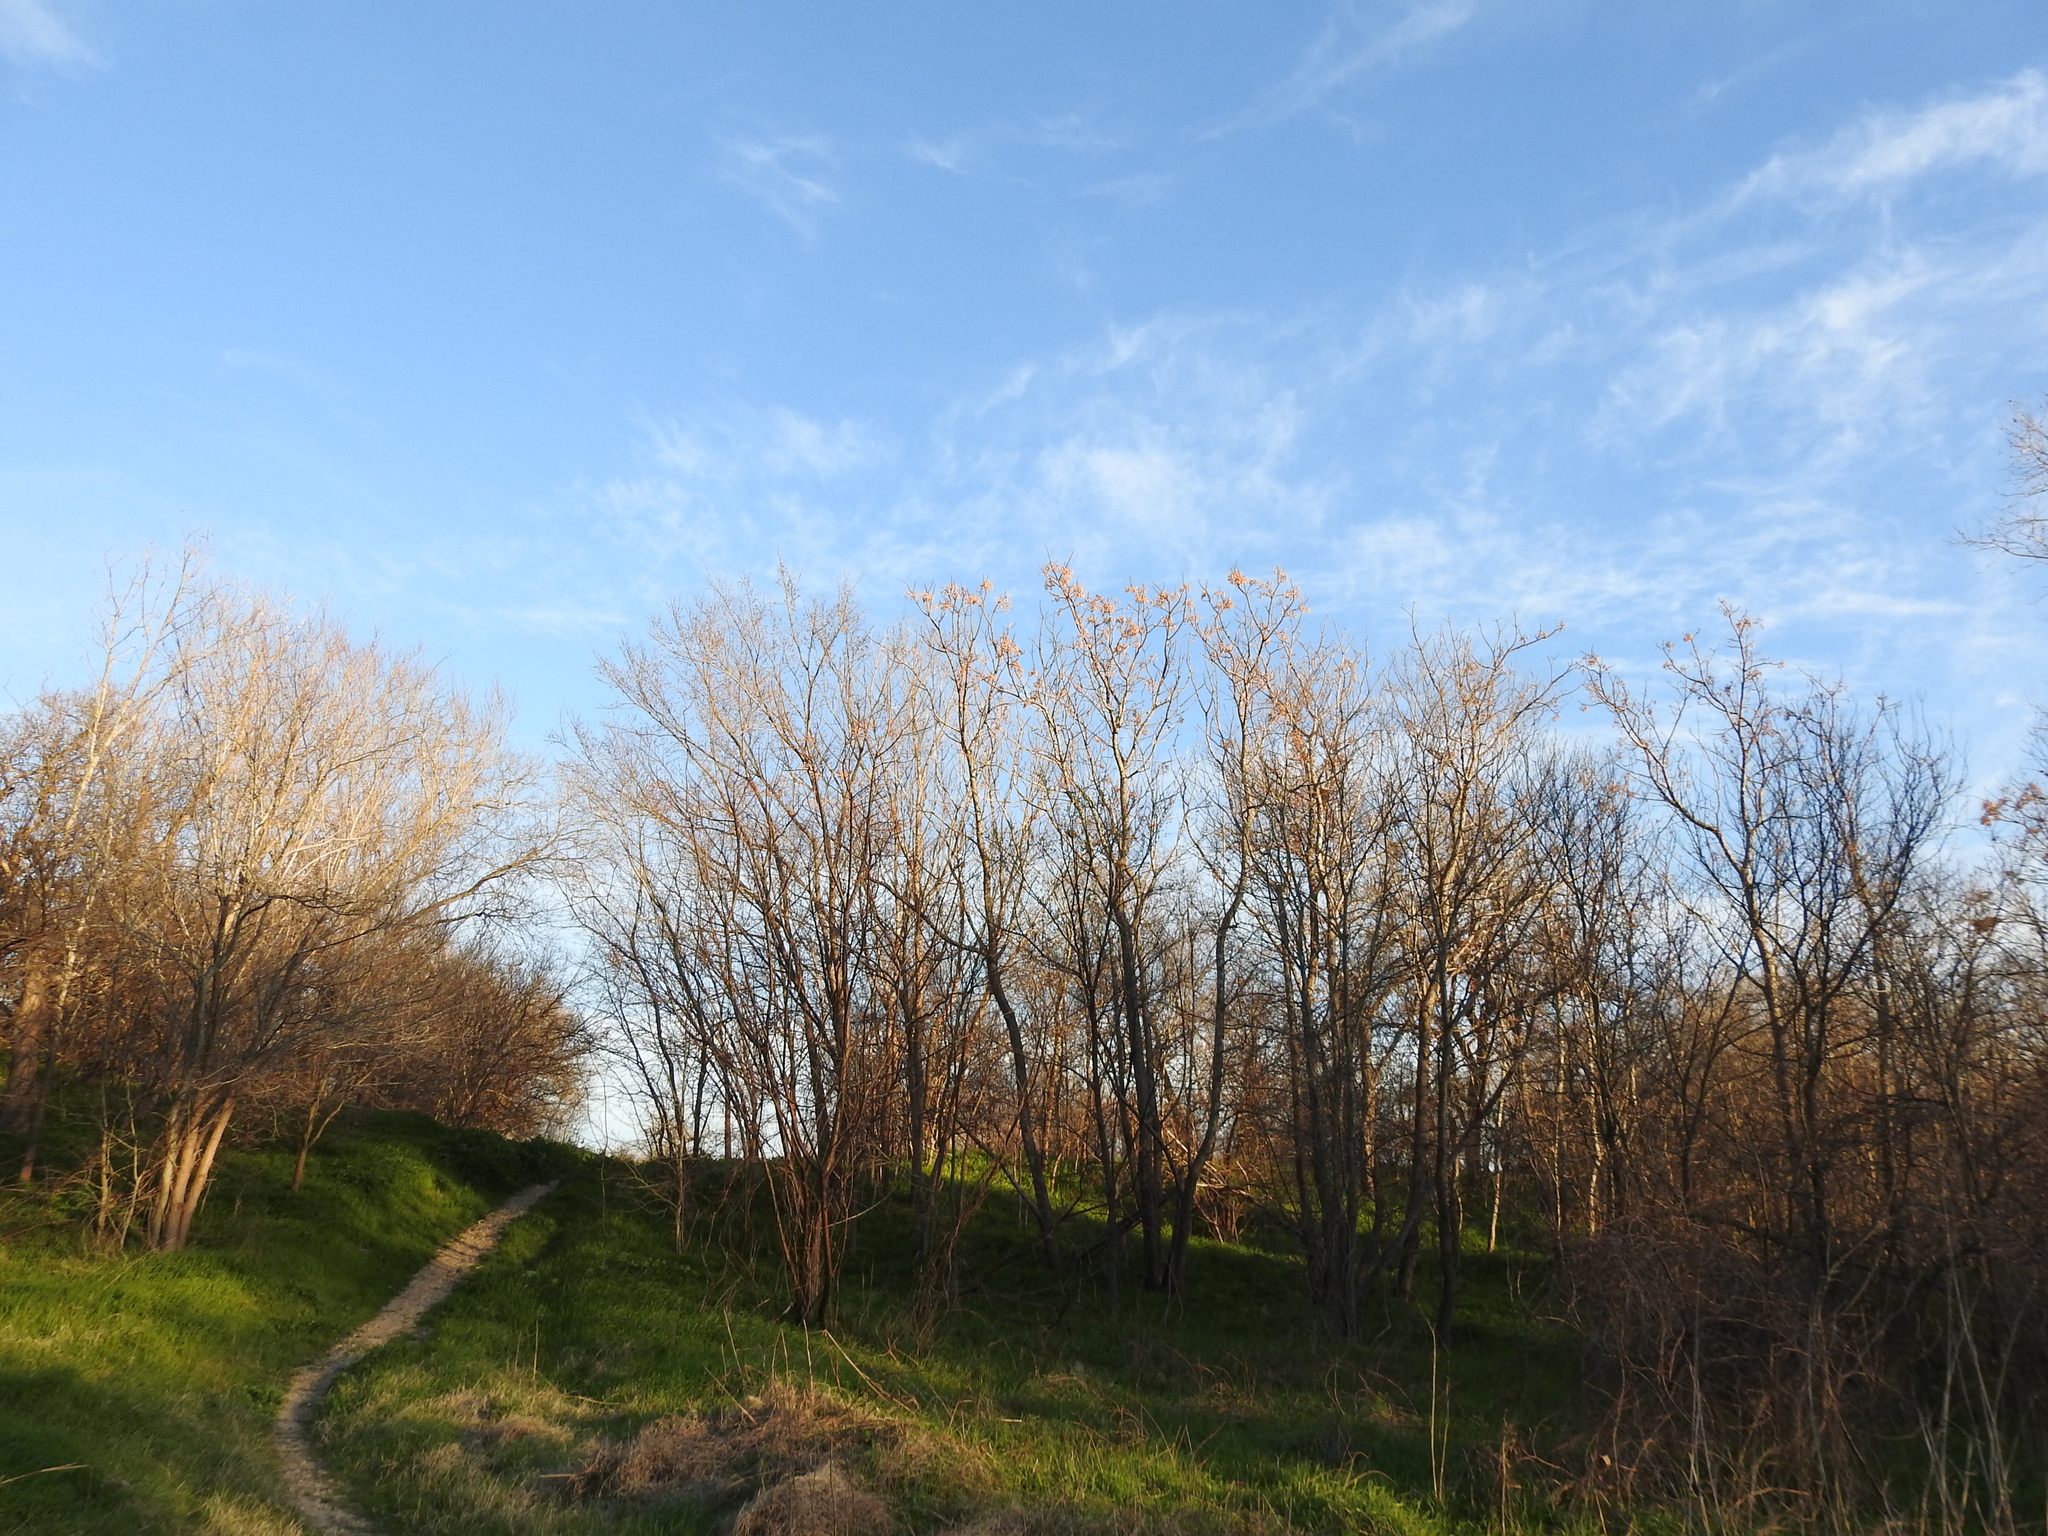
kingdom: Plantae
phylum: Tracheophyta
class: Magnoliopsida
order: Sapindales
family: Meliaceae
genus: Melia
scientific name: Melia azedarach
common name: Chinaberrytree
